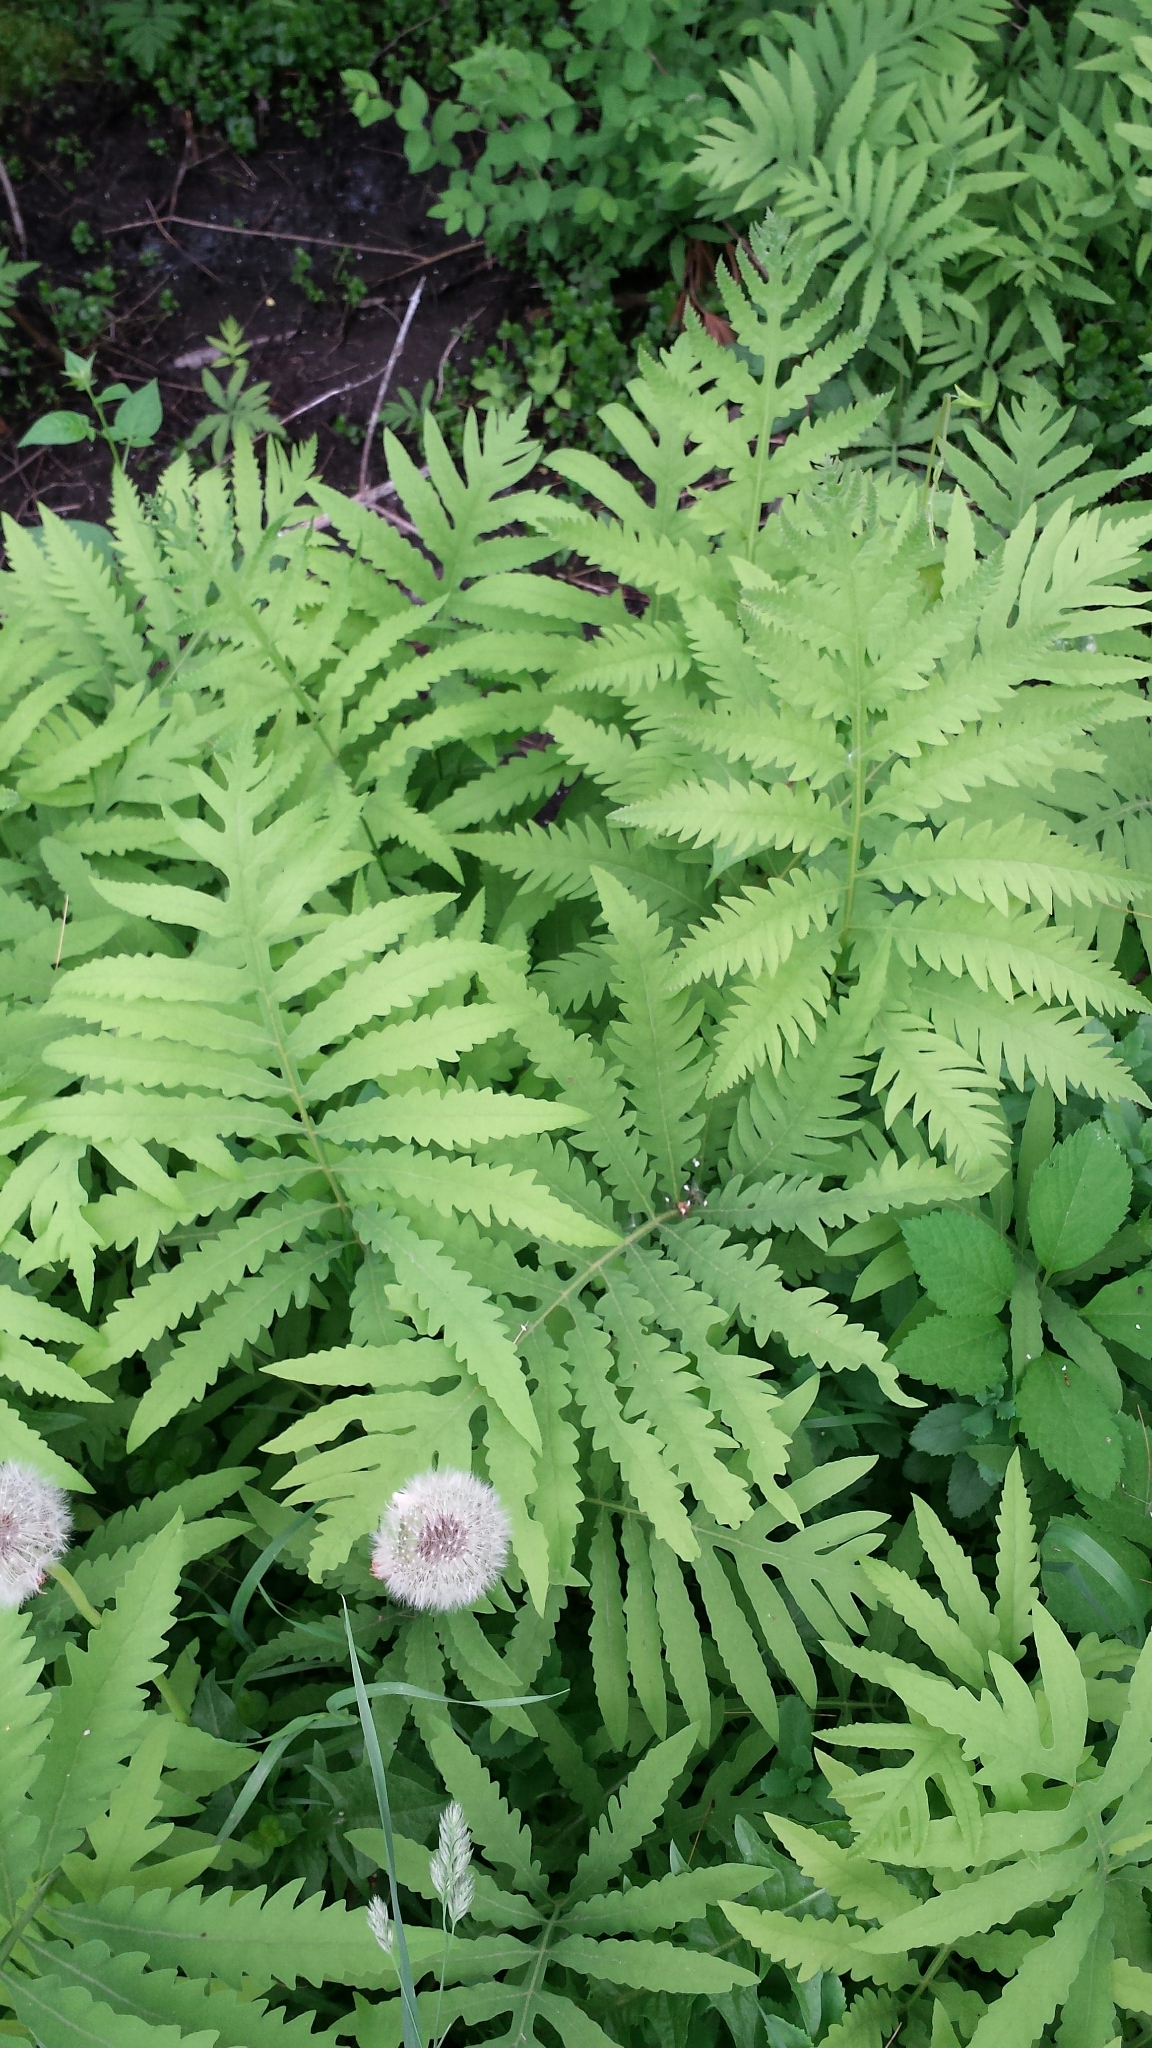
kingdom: Plantae
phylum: Tracheophyta
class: Polypodiopsida
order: Polypodiales
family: Onocleaceae
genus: Onoclea
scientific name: Onoclea sensibilis
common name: Sensitive fern
